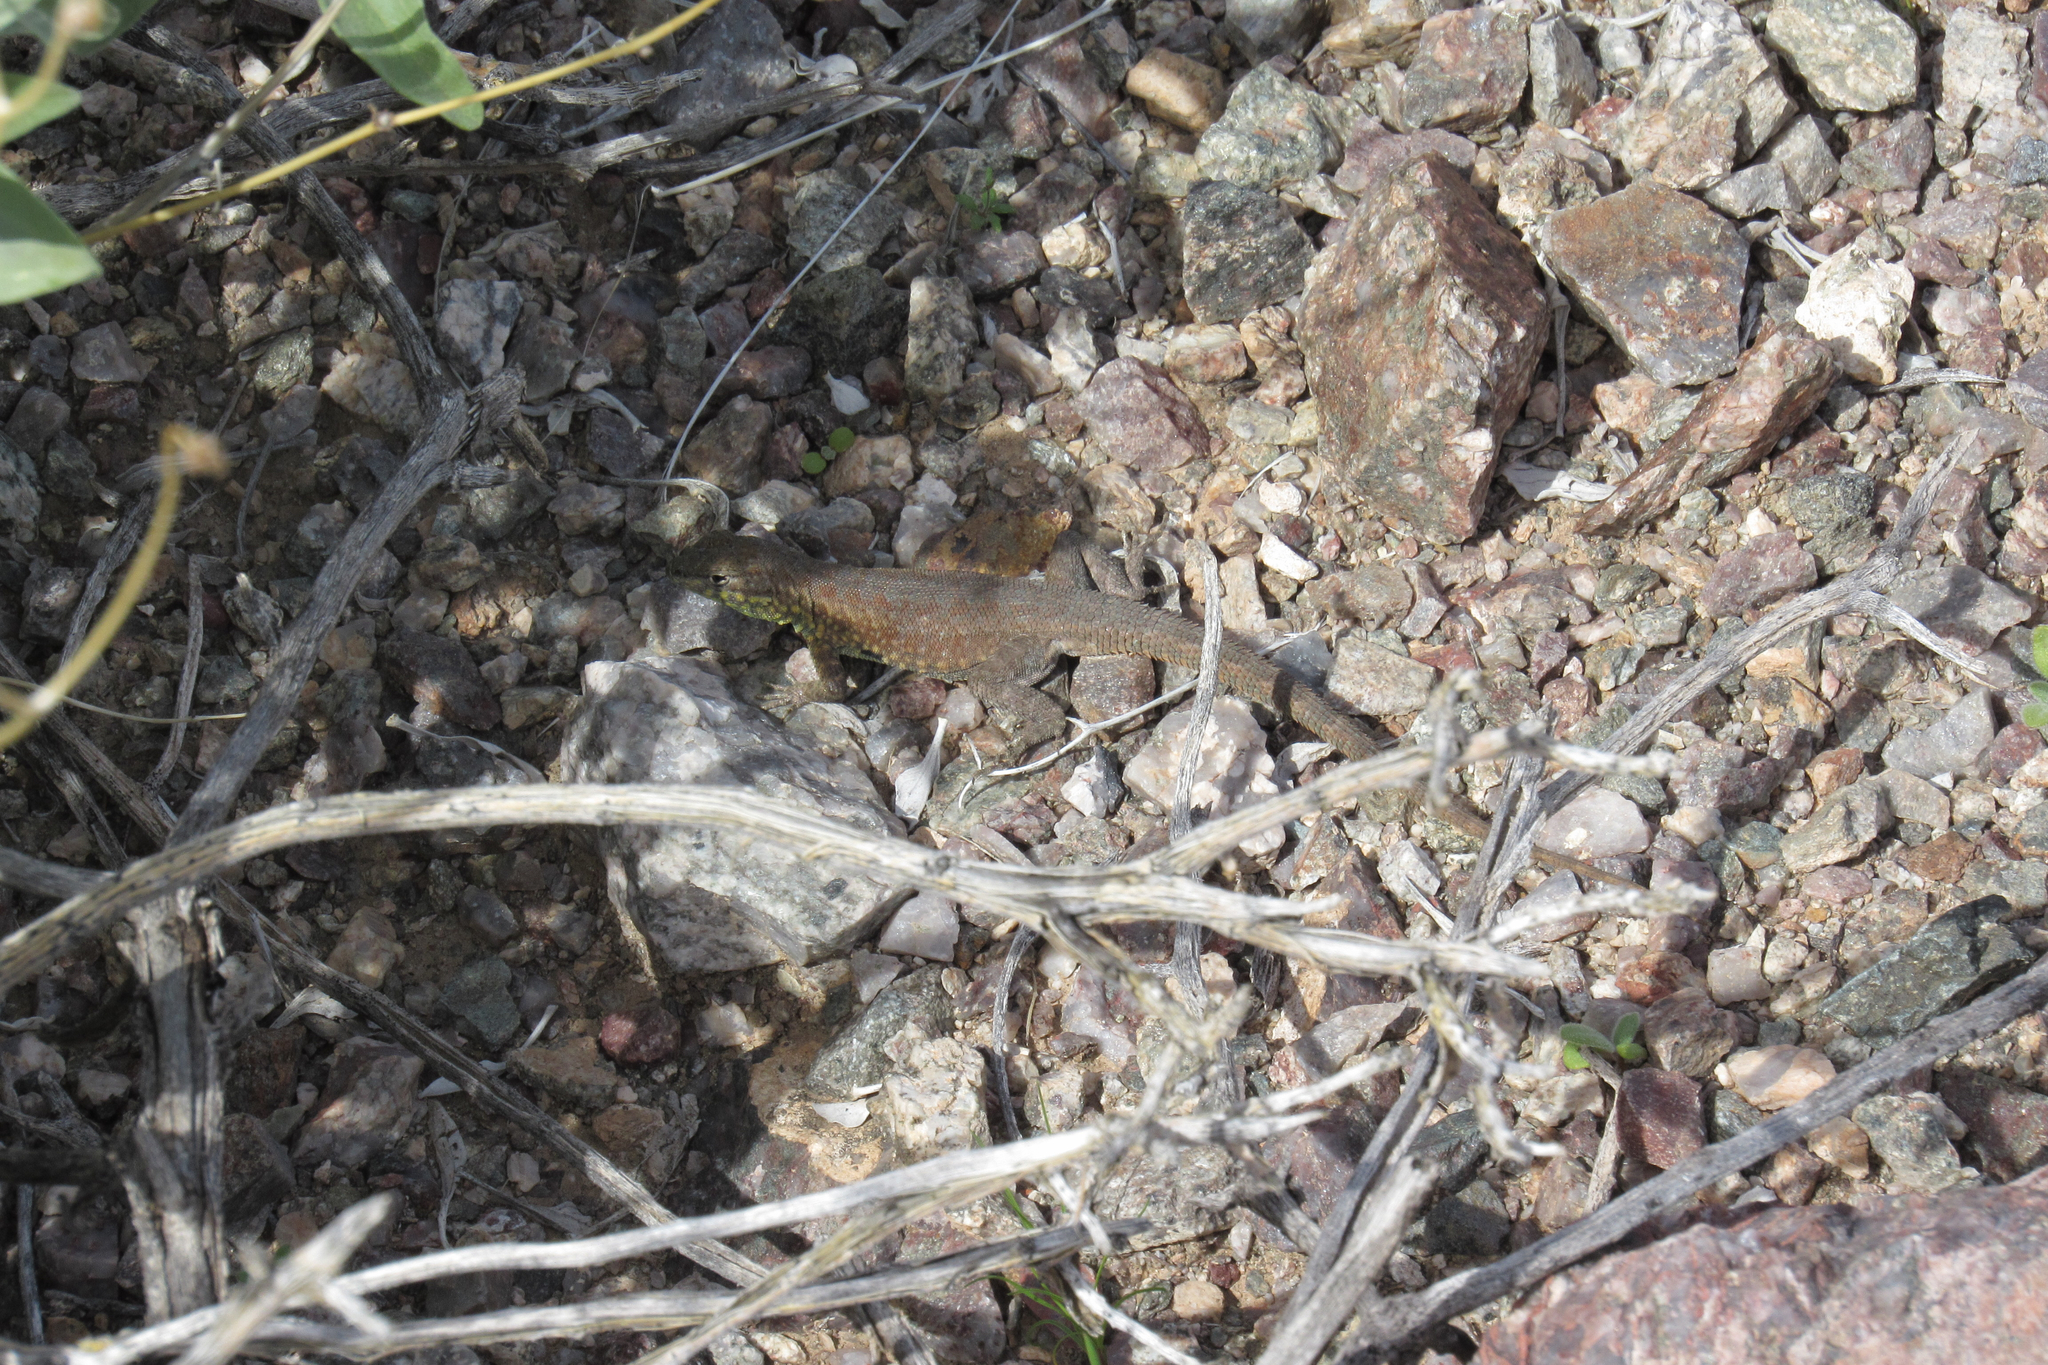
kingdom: Animalia
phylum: Chordata
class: Squamata
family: Phrynosomatidae
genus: Uta
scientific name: Uta stansburiana
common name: Side-blotched lizard
